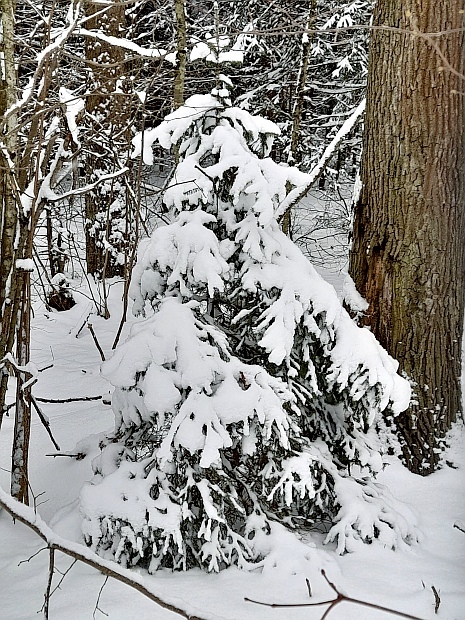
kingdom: Plantae
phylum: Tracheophyta
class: Pinopsida
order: Pinales
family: Pinaceae
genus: Picea
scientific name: Picea abies
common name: Norway spruce
